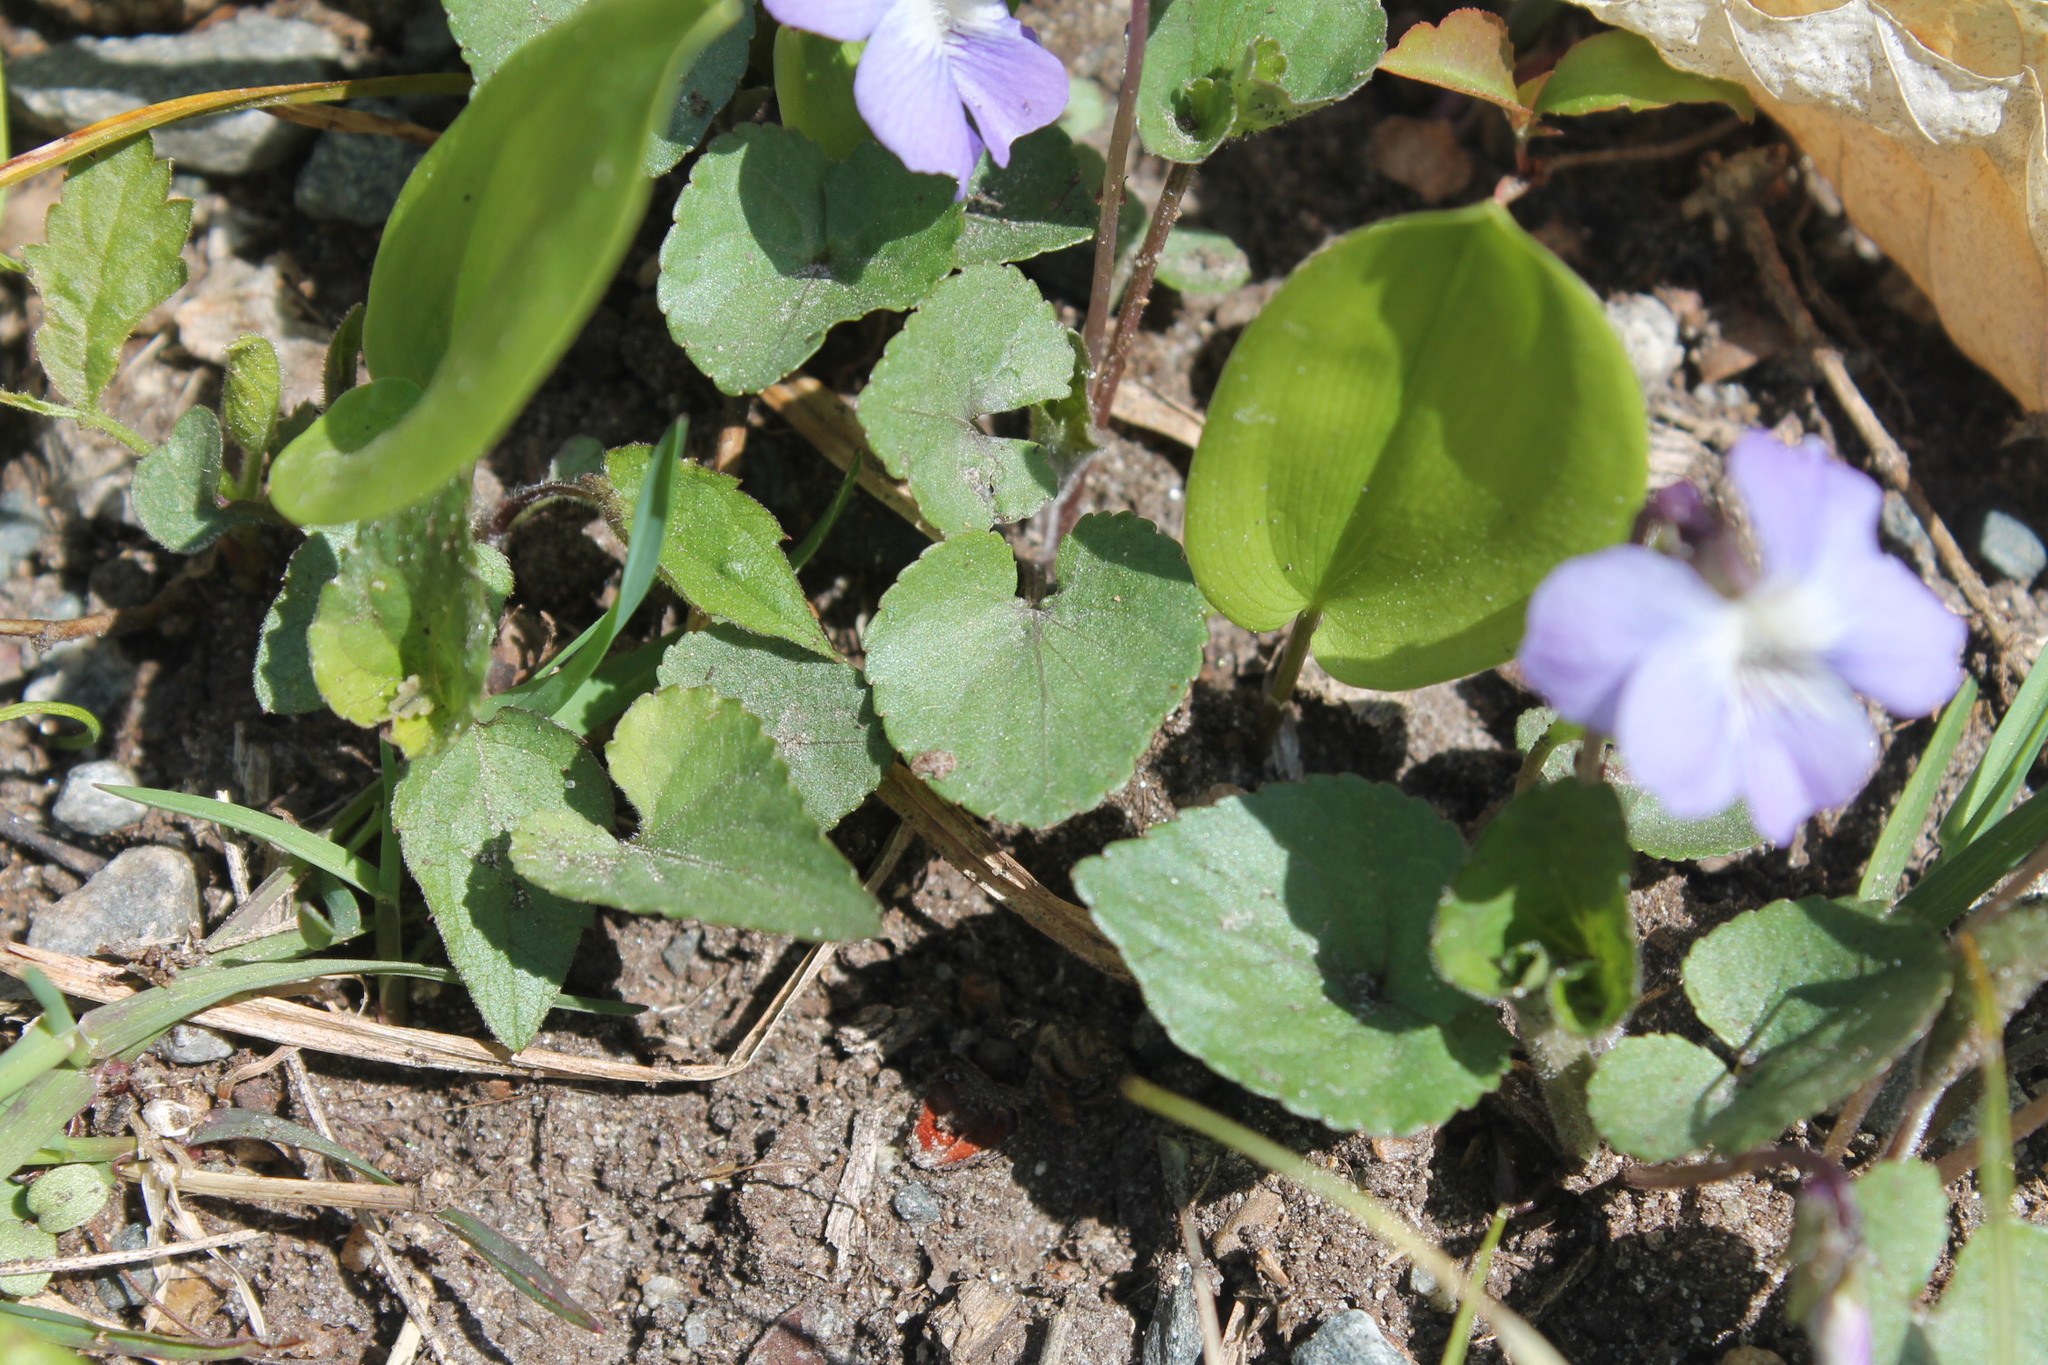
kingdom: Plantae
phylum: Tracheophyta
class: Magnoliopsida
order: Malpighiales
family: Violaceae
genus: Viola
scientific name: Viola sororia
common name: Dooryard violet
